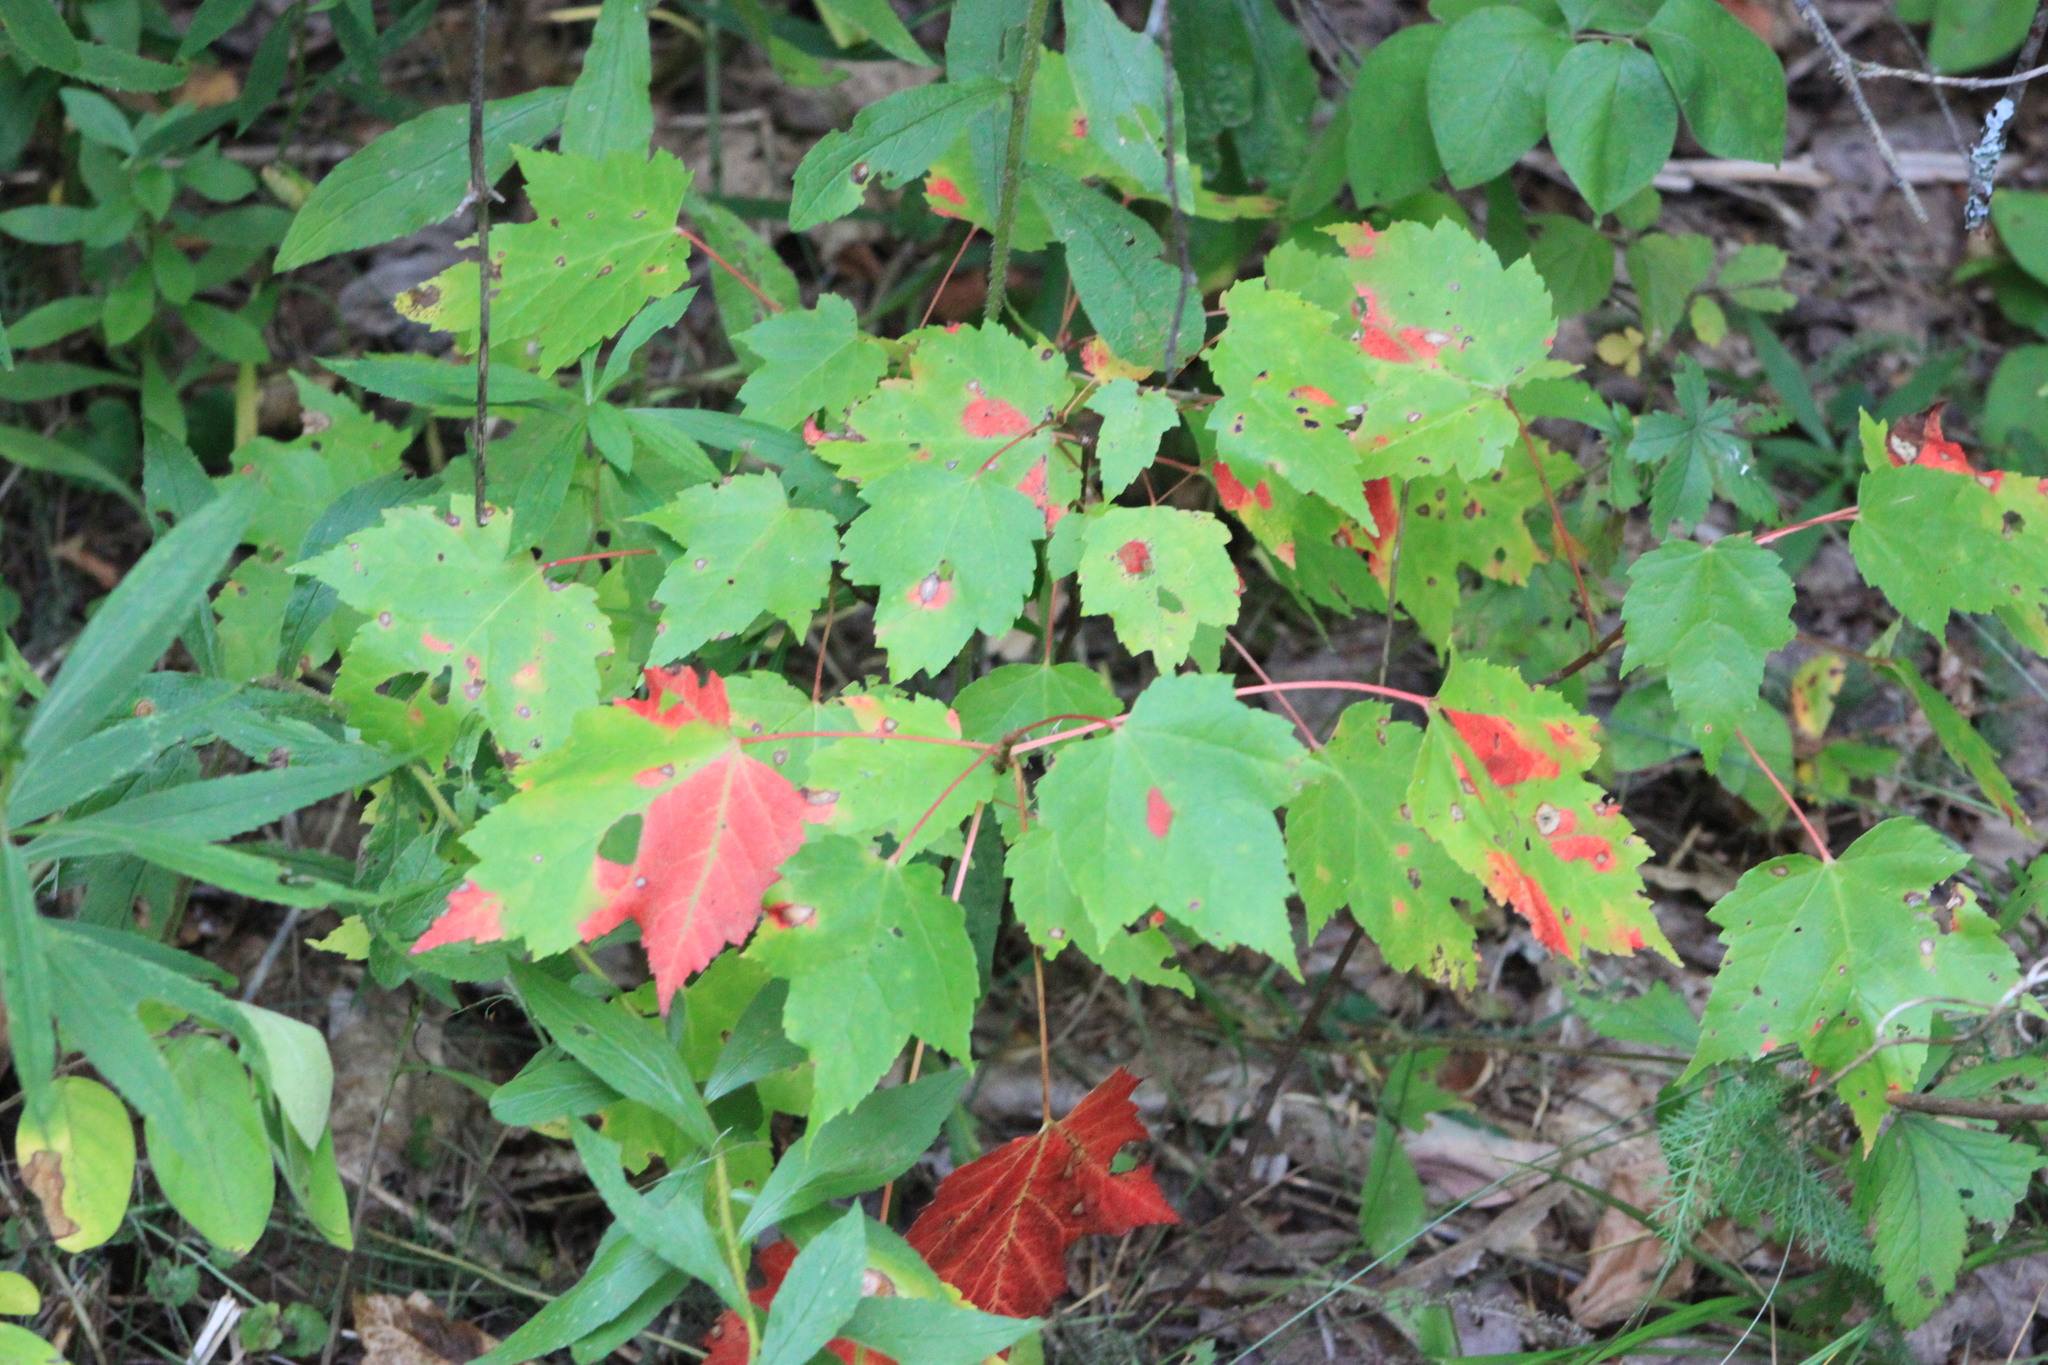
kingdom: Plantae
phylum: Tracheophyta
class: Magnoliopsida
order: Sapindales
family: Sapindaceae
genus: Acer
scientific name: Acer rubrum
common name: Red maple
